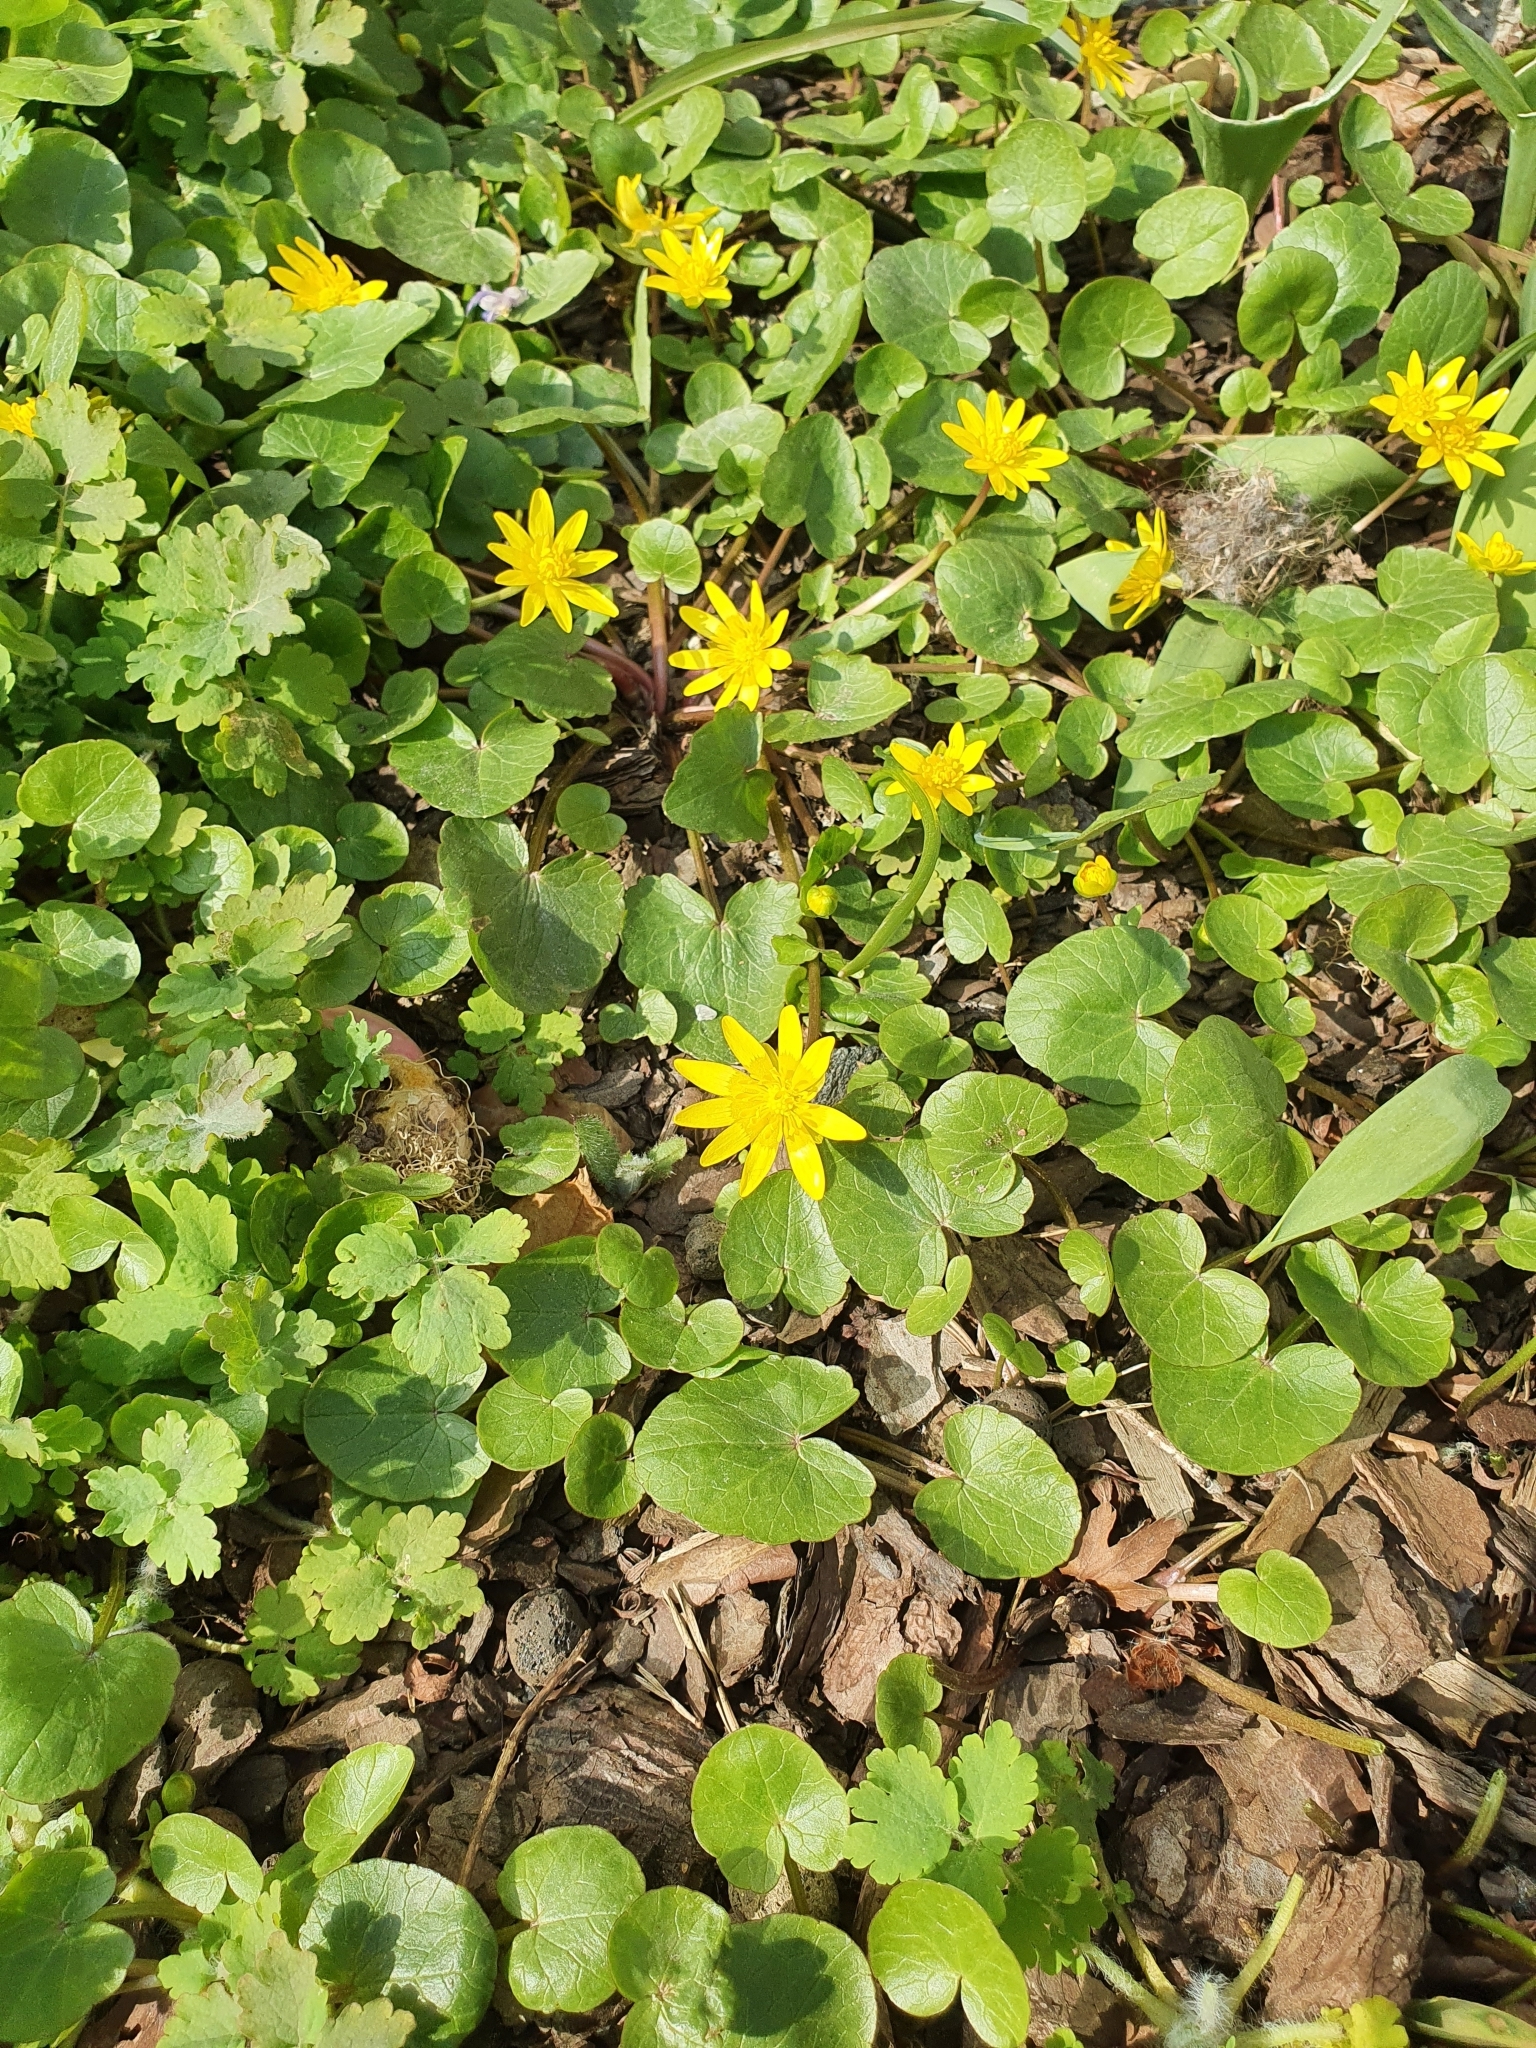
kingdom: Plantae
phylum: Tracheophyta
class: Magnoliopsida
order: Ranunculales
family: Ranunculaceae
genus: Ficaria
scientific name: Ficaria verna
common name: Lesser celandine
